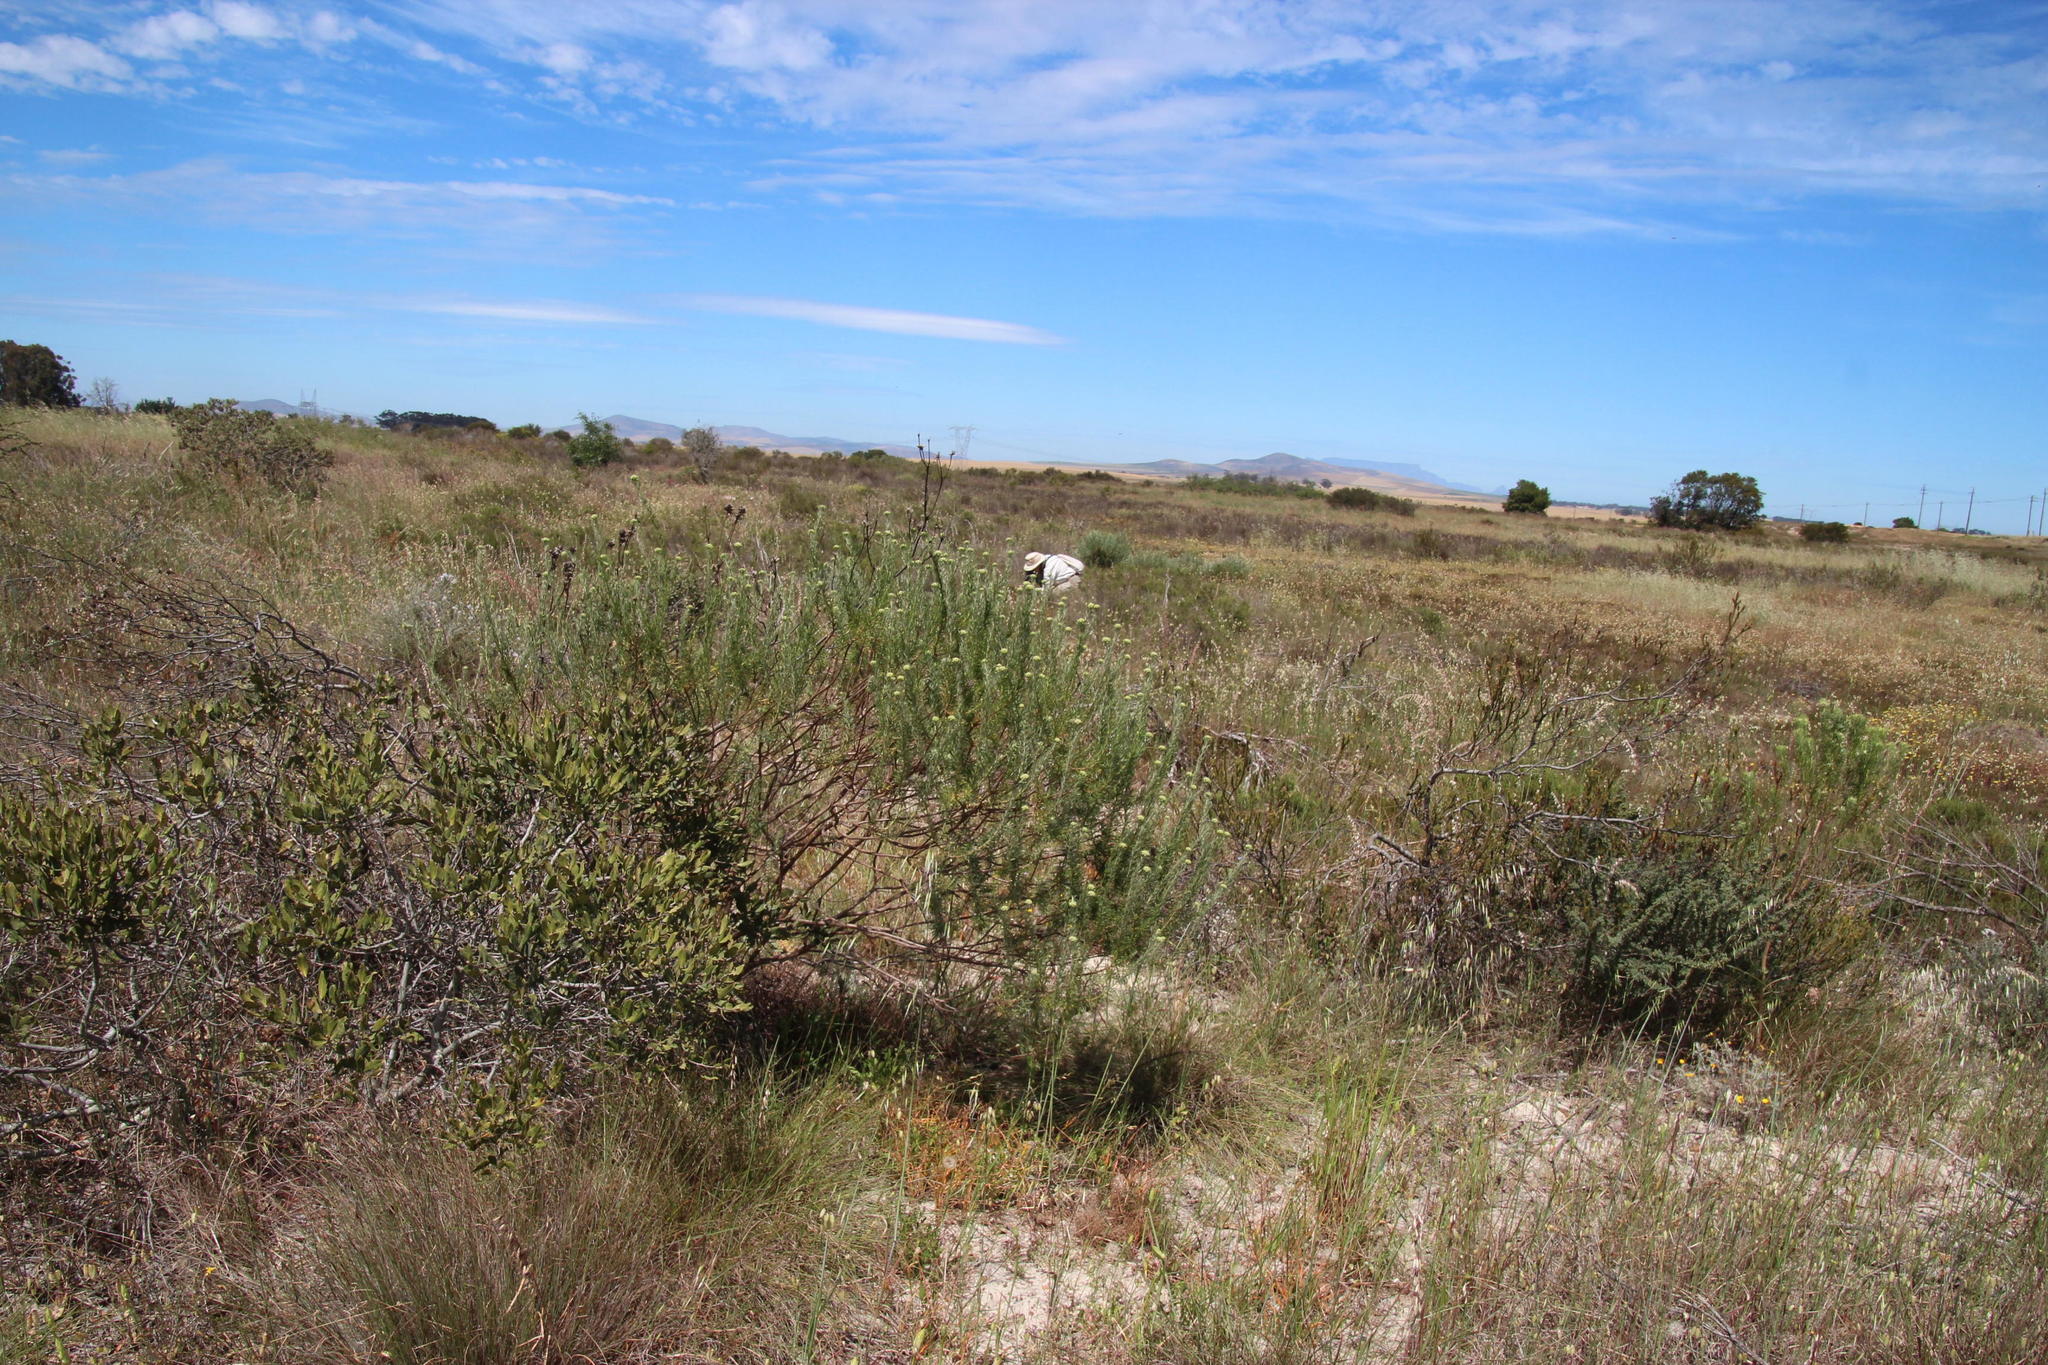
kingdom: Plantae
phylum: Tracheophyta
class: Magnoliopsida
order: Asterales
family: Asteraceae
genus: Athanasia
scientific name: Athanasia trifurcata
